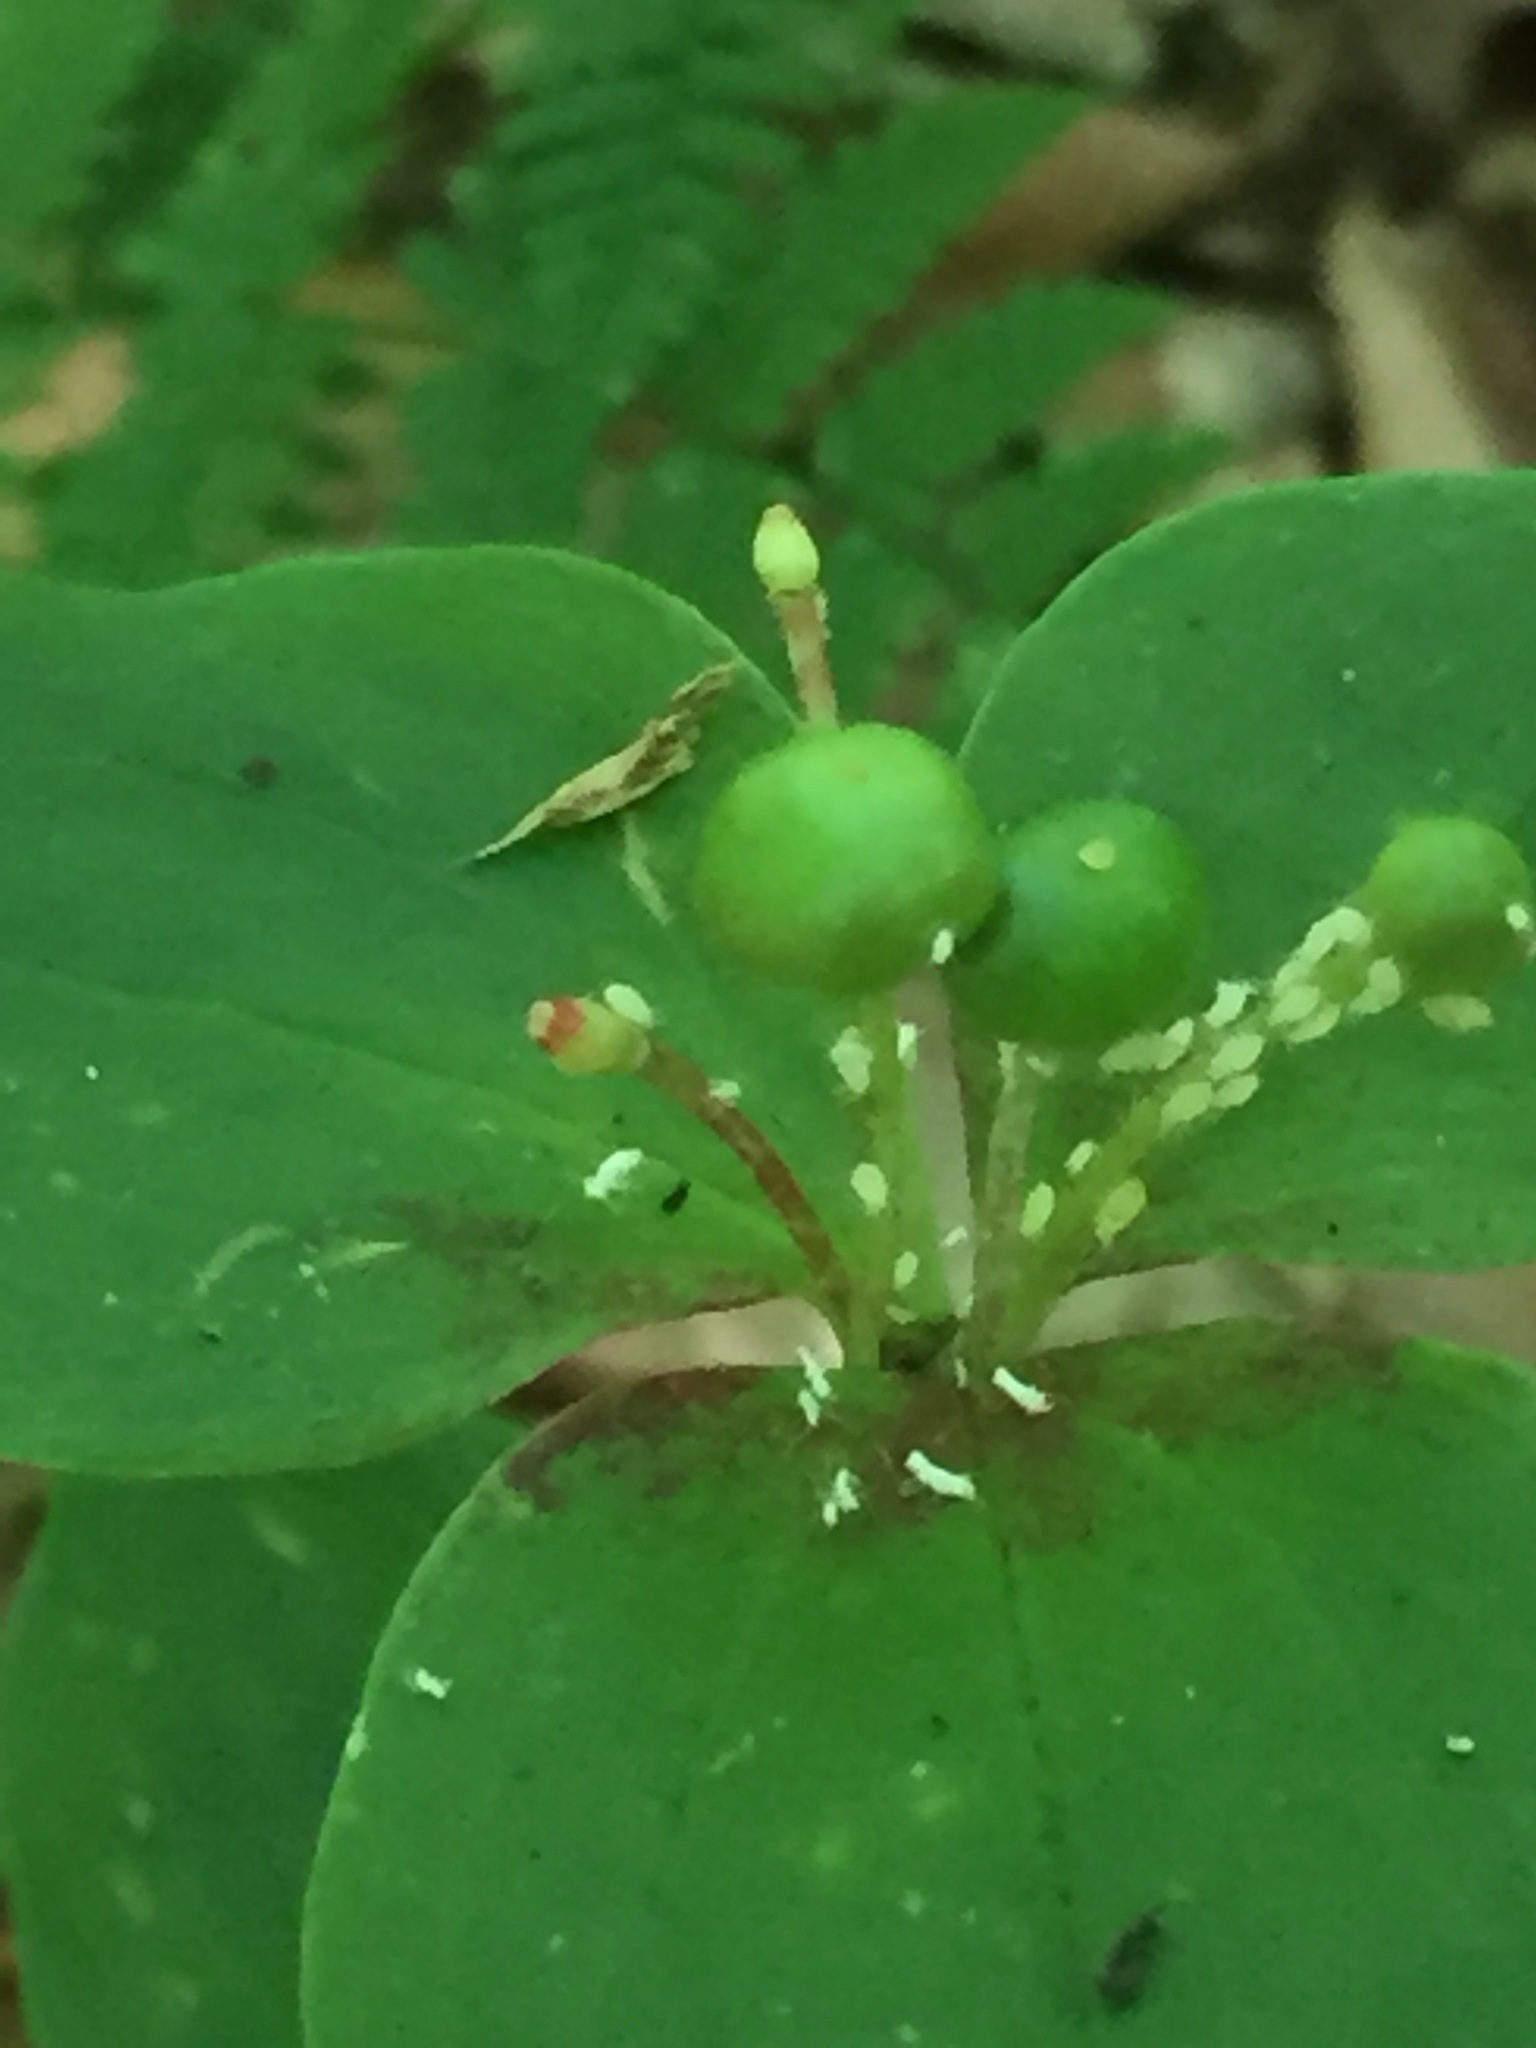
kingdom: Plantae
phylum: Tracheophyta
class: Liliopsida
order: Liliales
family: Liliaceae
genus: Medeola
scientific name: Medeola virginiana
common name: Indian cucumber-root
